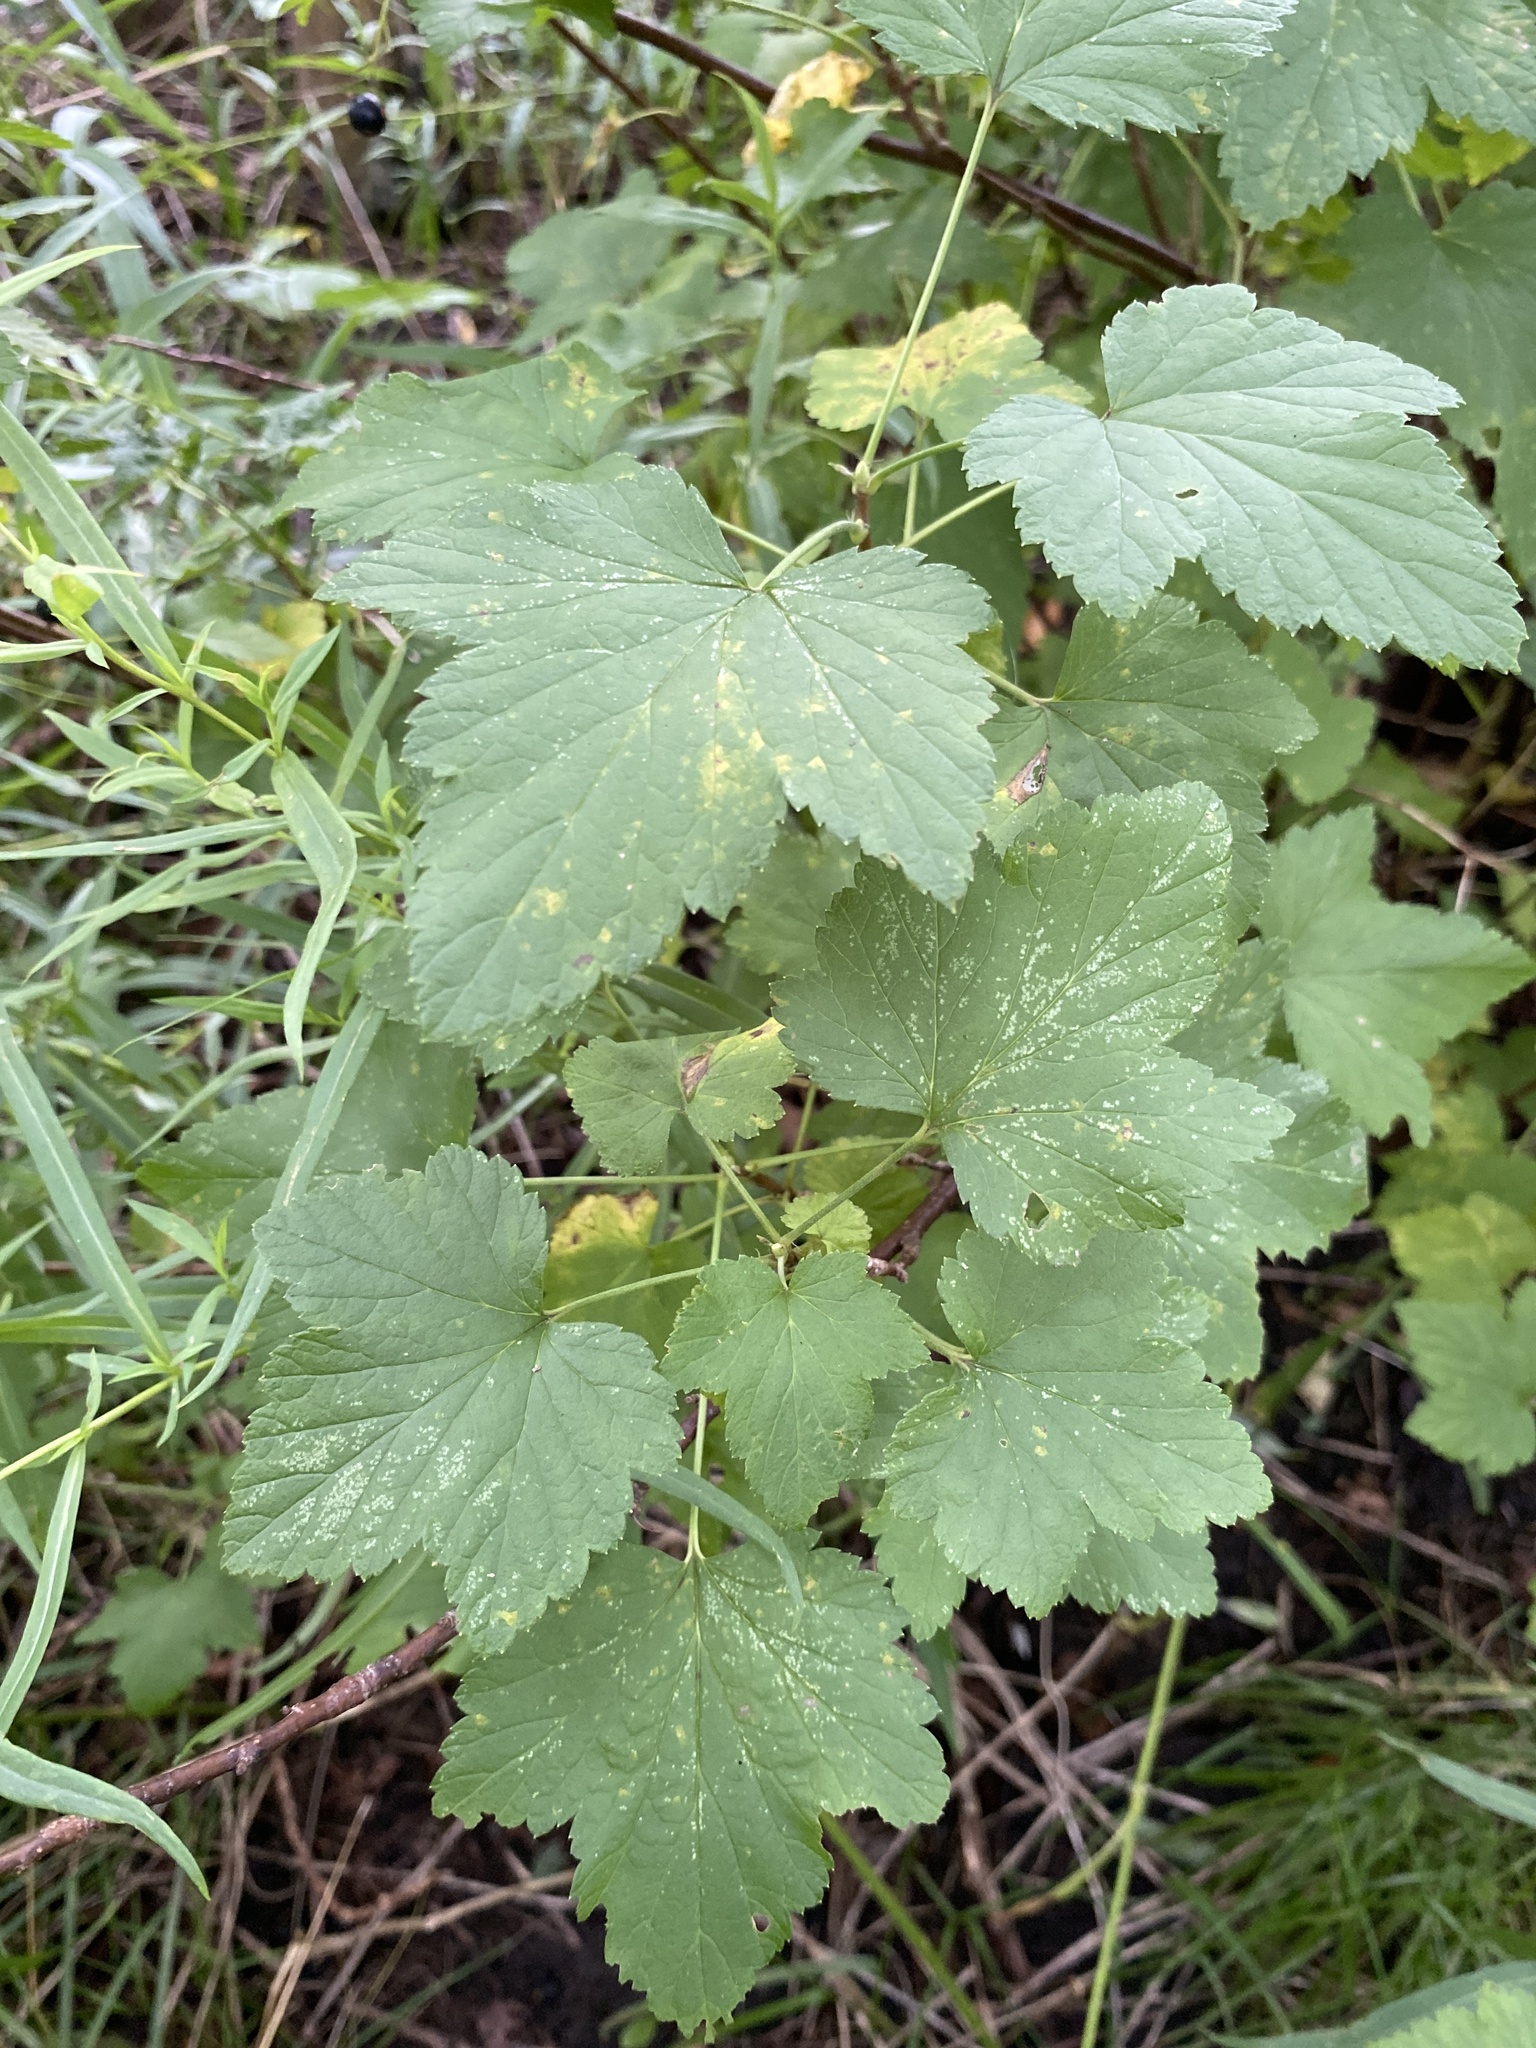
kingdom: Plantae
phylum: Tracheophyta
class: Magnoliopsida
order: Saxifragales
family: Grossulariaceae
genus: Ribes
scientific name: Ribes americanum
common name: American black currant
